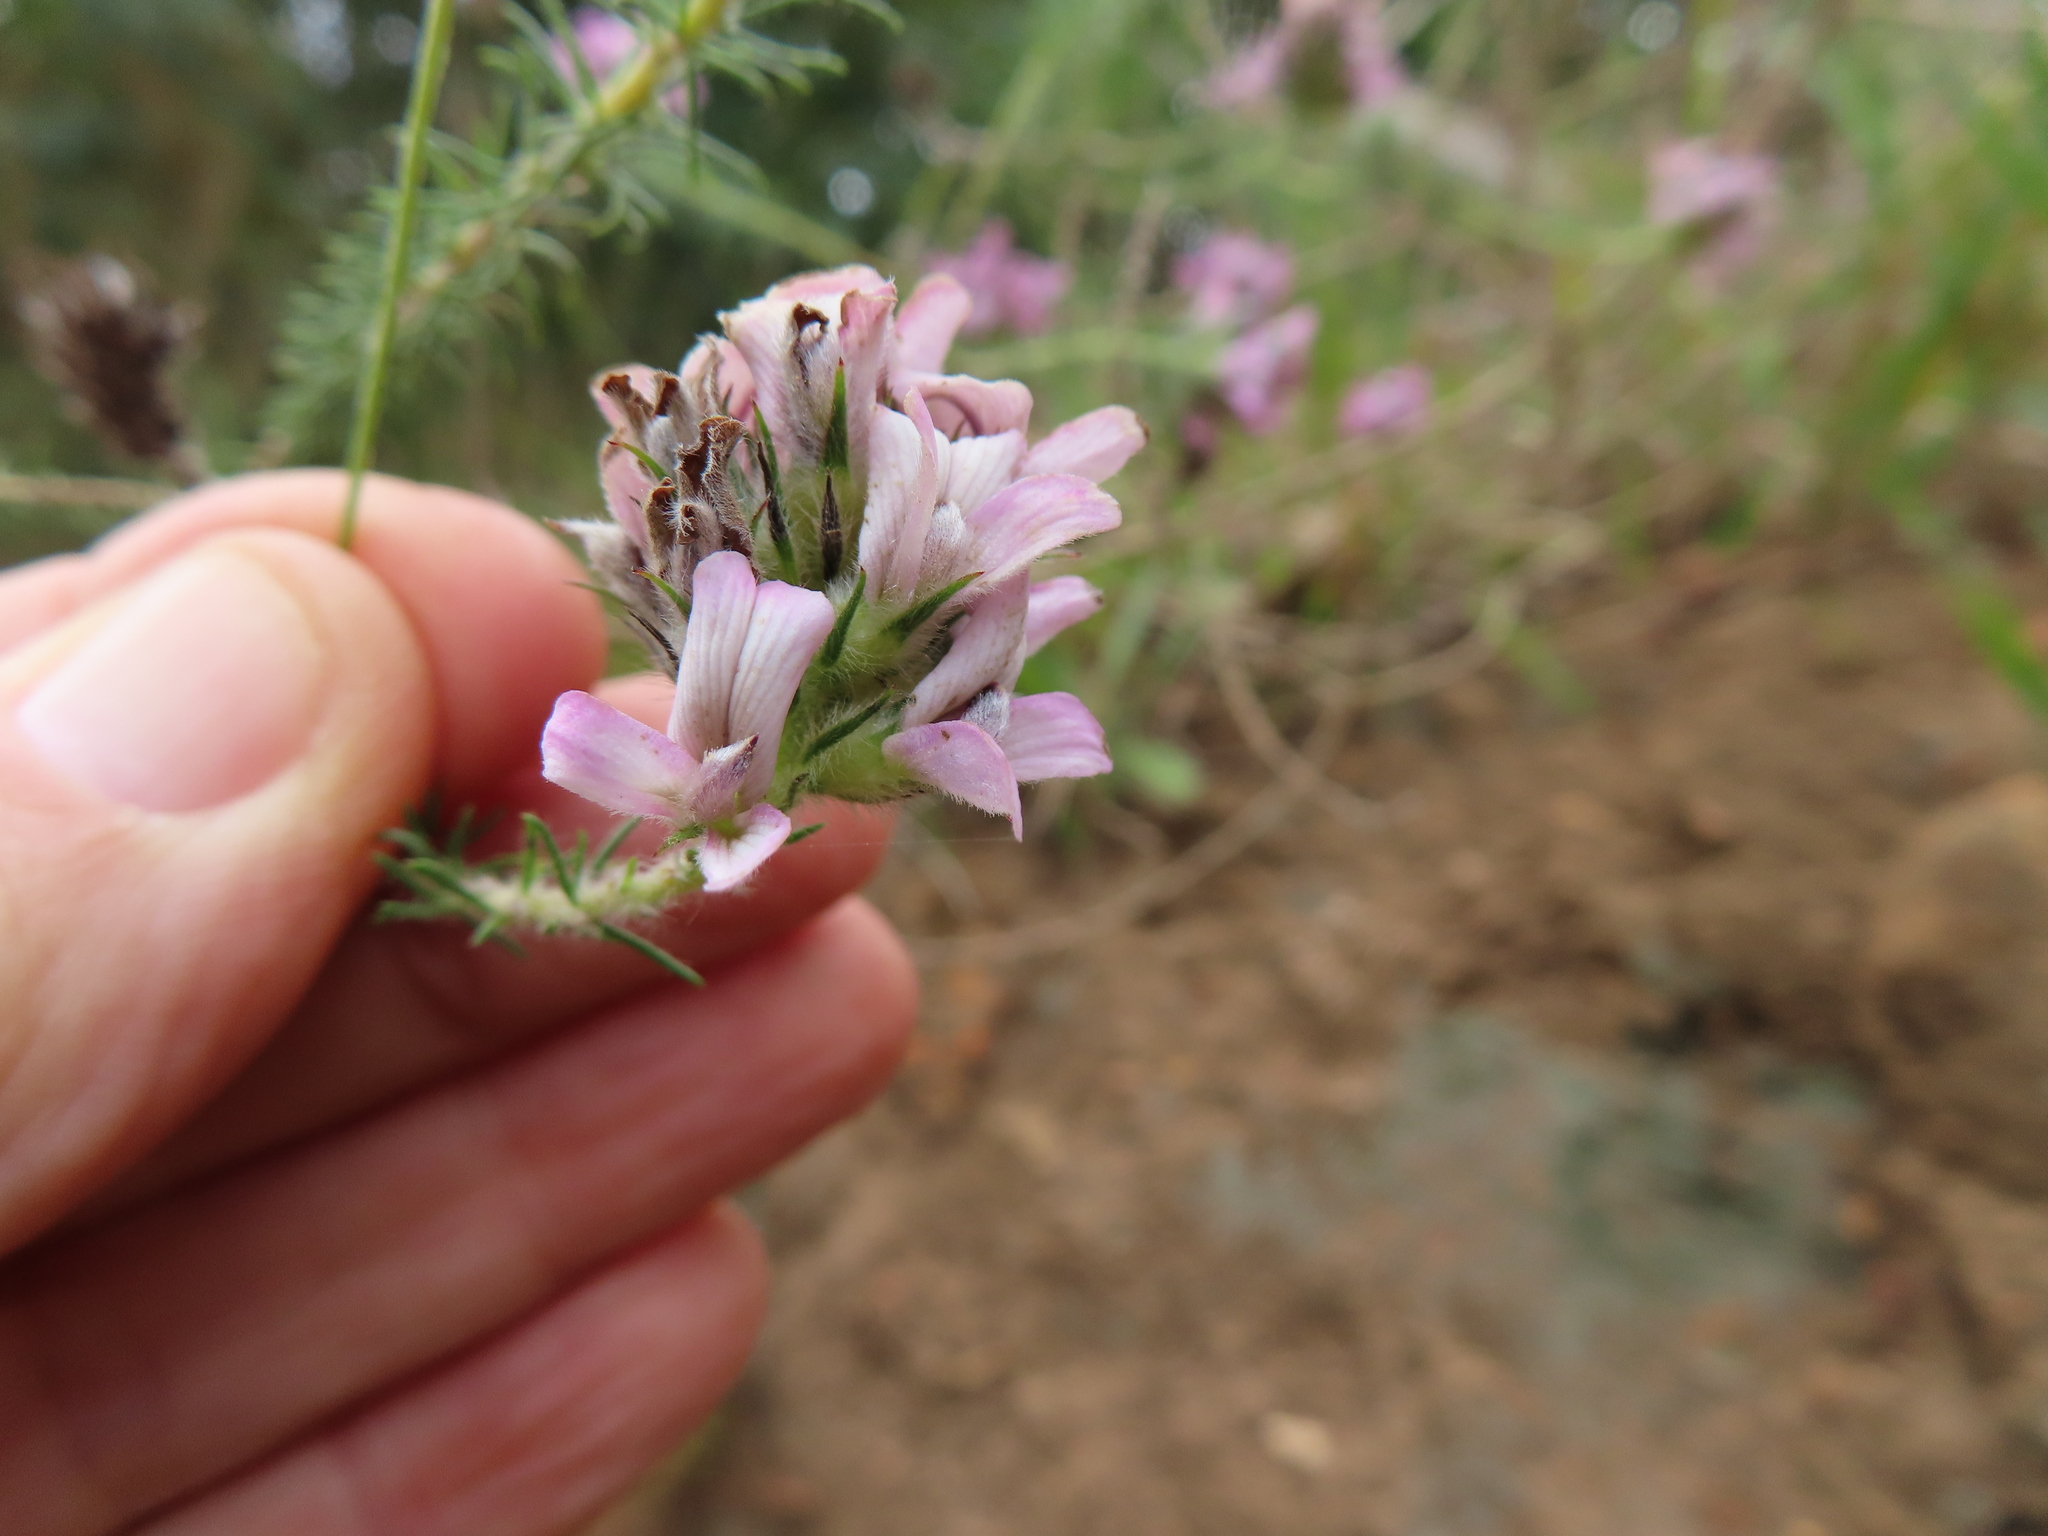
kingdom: Plantae
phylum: Tracheophyta
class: Magnoliopsida
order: Fabales
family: Fabaceae
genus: Aspalathus
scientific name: Aspalathus cephalotes
